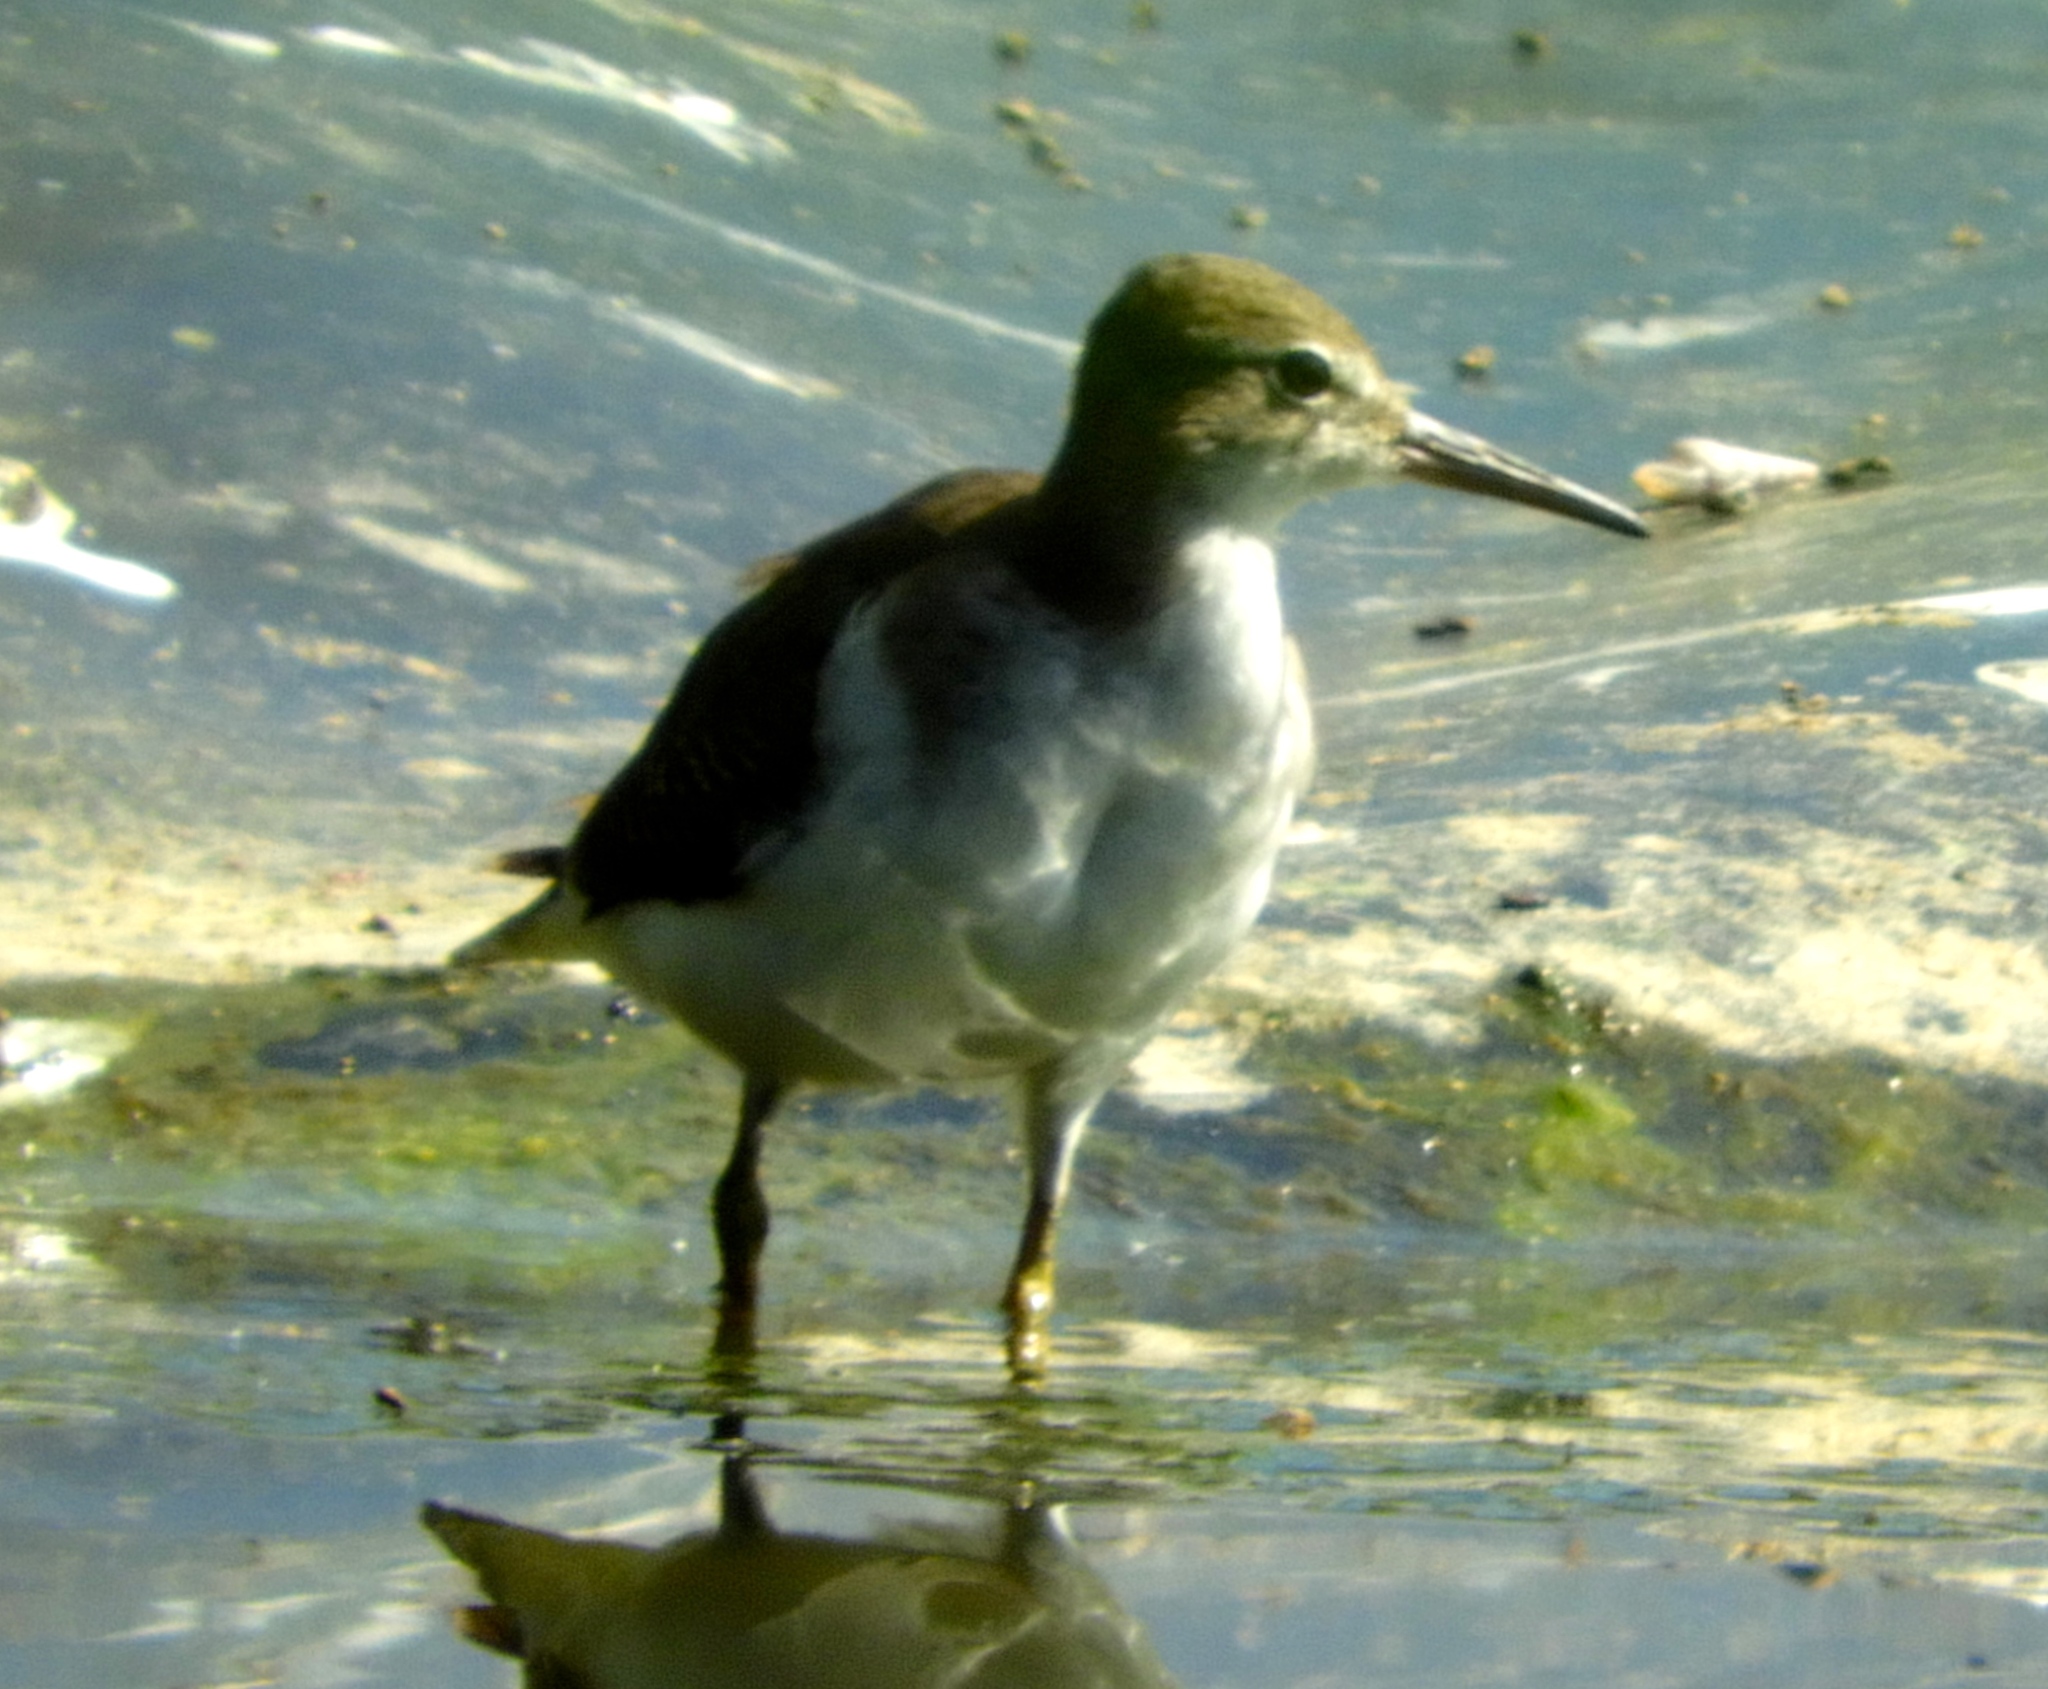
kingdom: Animalia
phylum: Chordata
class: Aves
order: Charadriiformes
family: Scolopacidae
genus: Actitis
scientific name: Actitis macularius
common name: Spotted sandpiper
